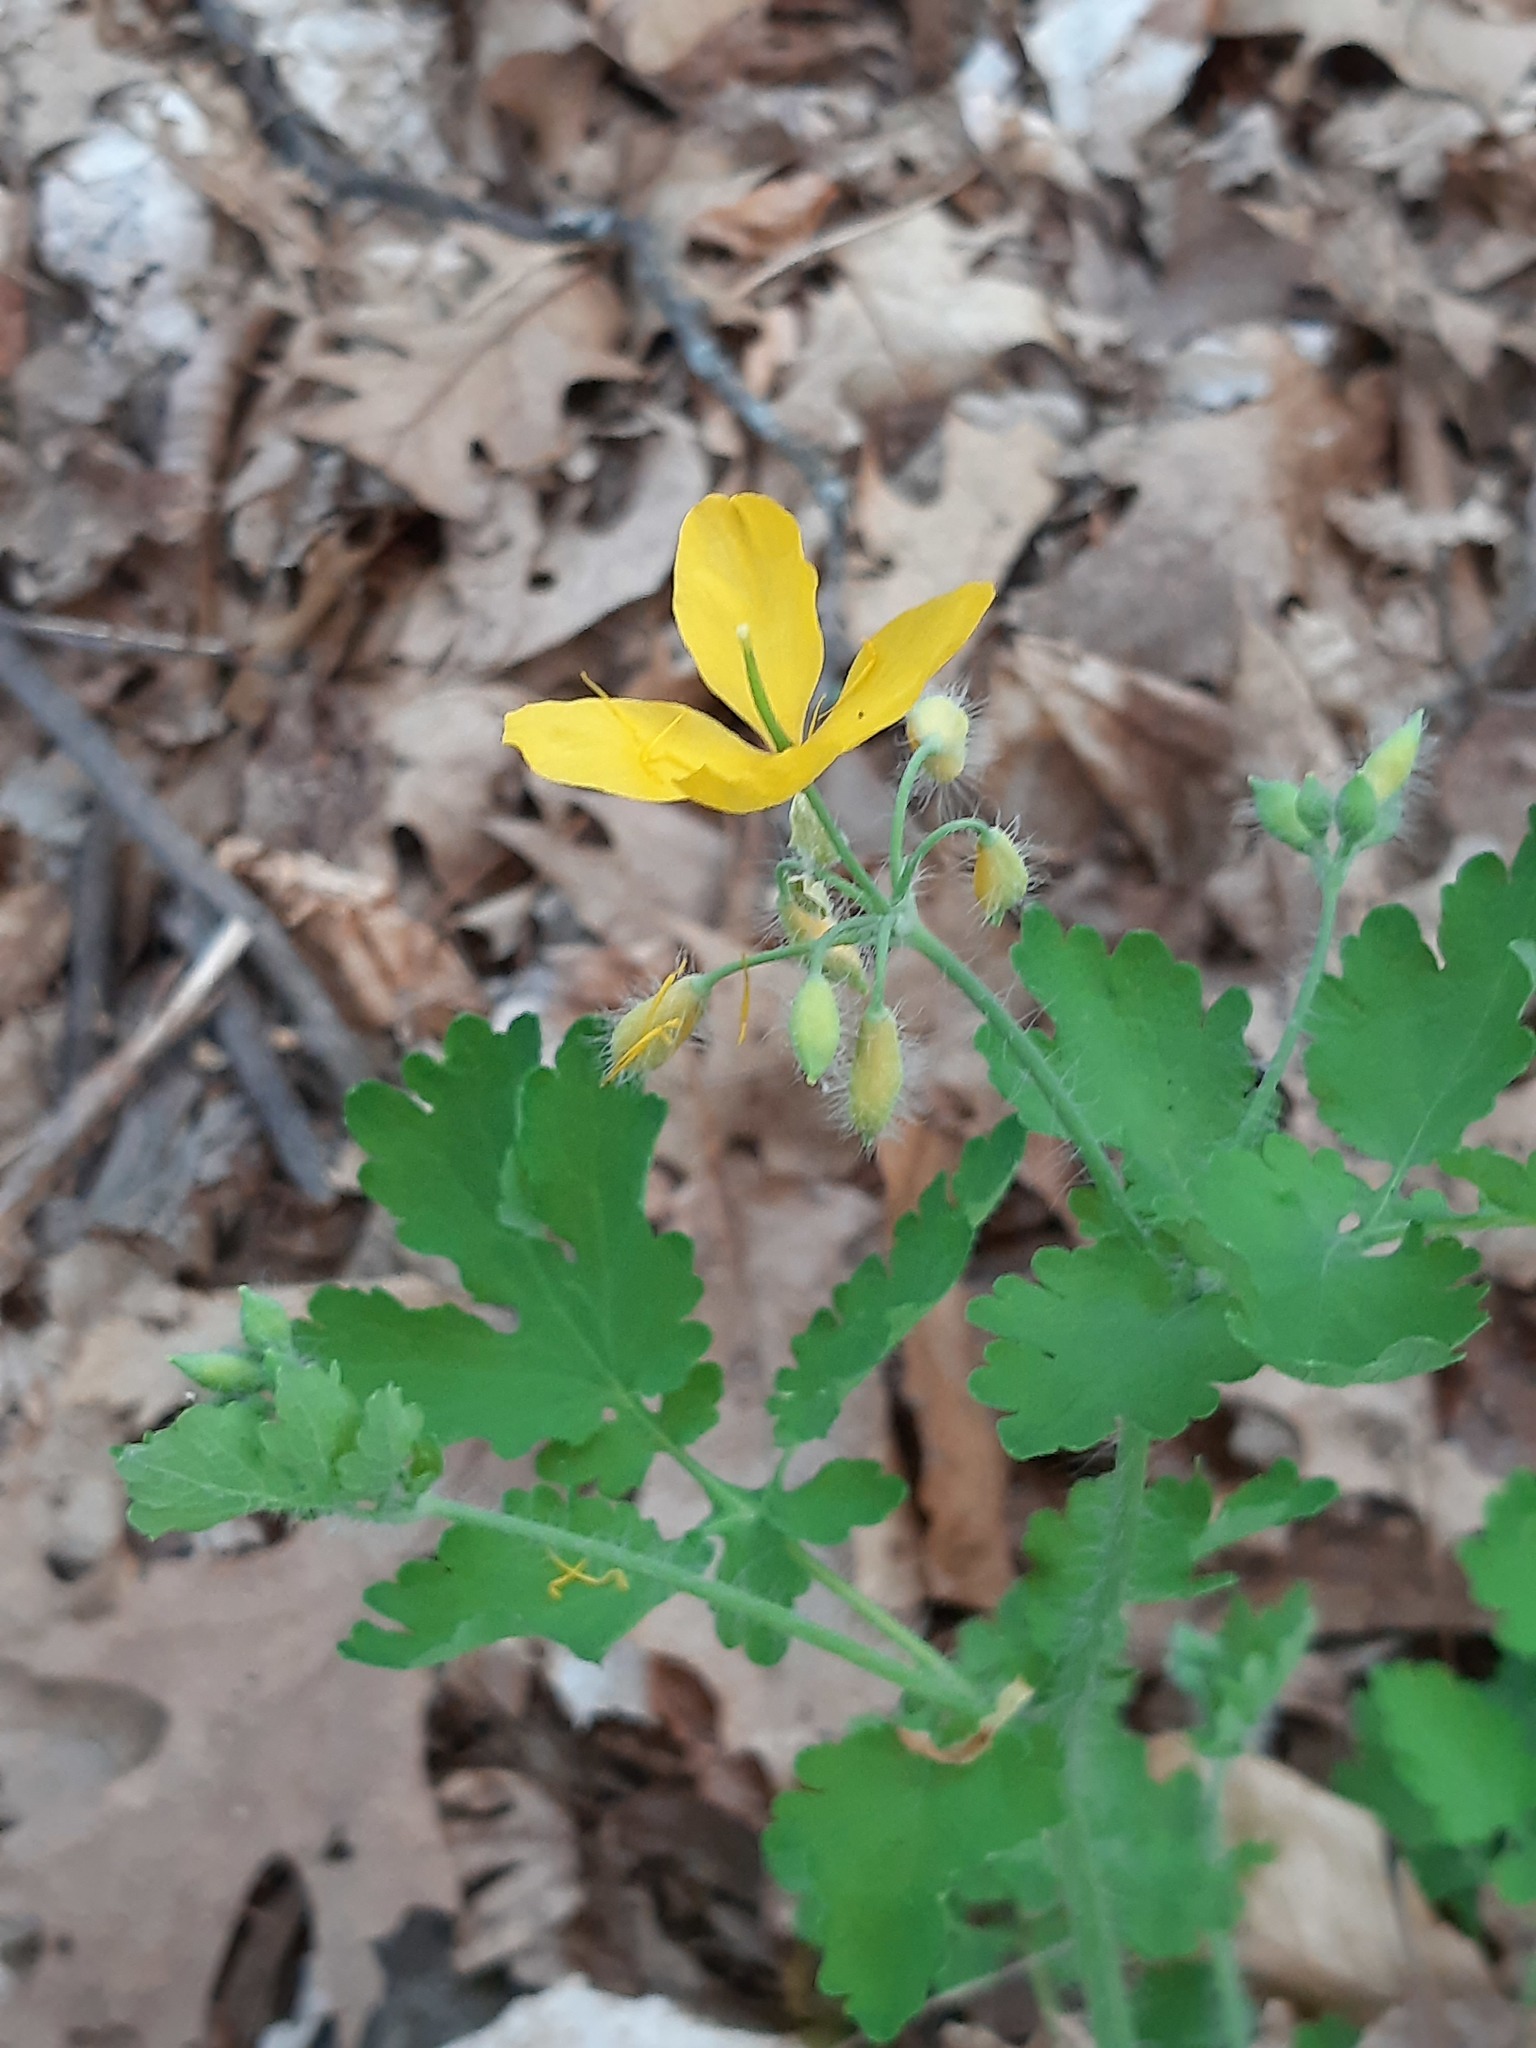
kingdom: Plantae
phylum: Tracheophyta
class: Magnoliopsida
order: Ranunculales
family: Papaveraceae
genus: Chelidonium
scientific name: Chelidonium majus
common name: Greater celandine
